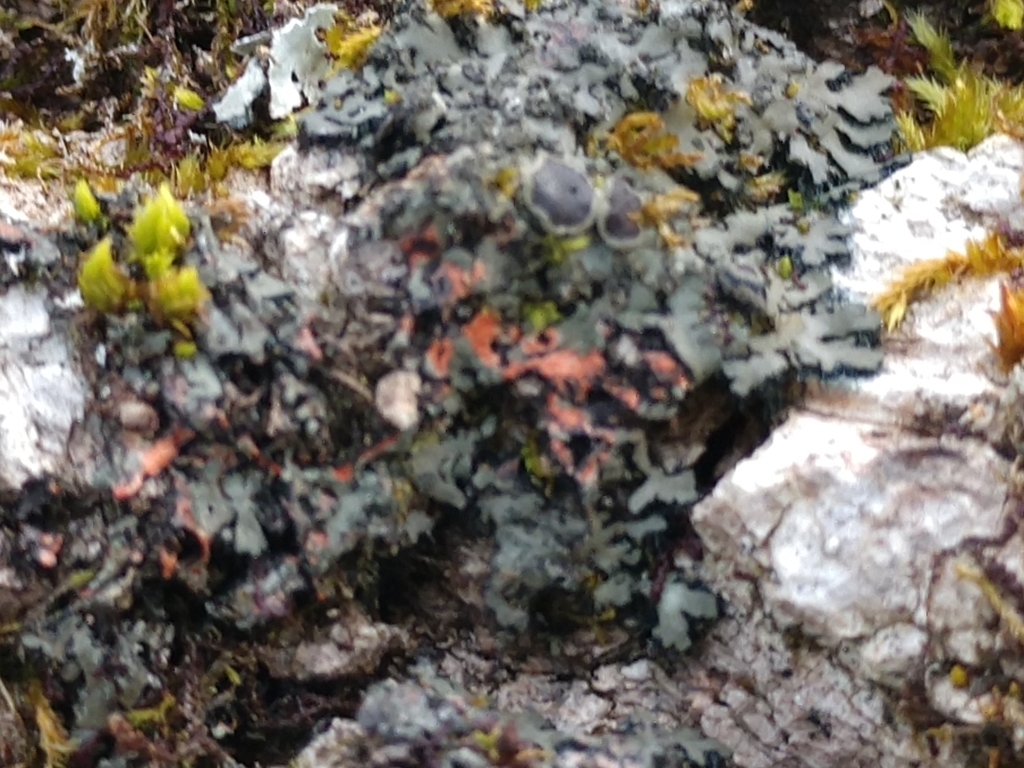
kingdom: Fungi
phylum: Ascomycota
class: Lecanoromycetes
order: Caliciales
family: Physciaceae
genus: Phaeophyscia
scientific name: Phaeophyscia rubropulchra
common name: Orange-cored shadow lichen
